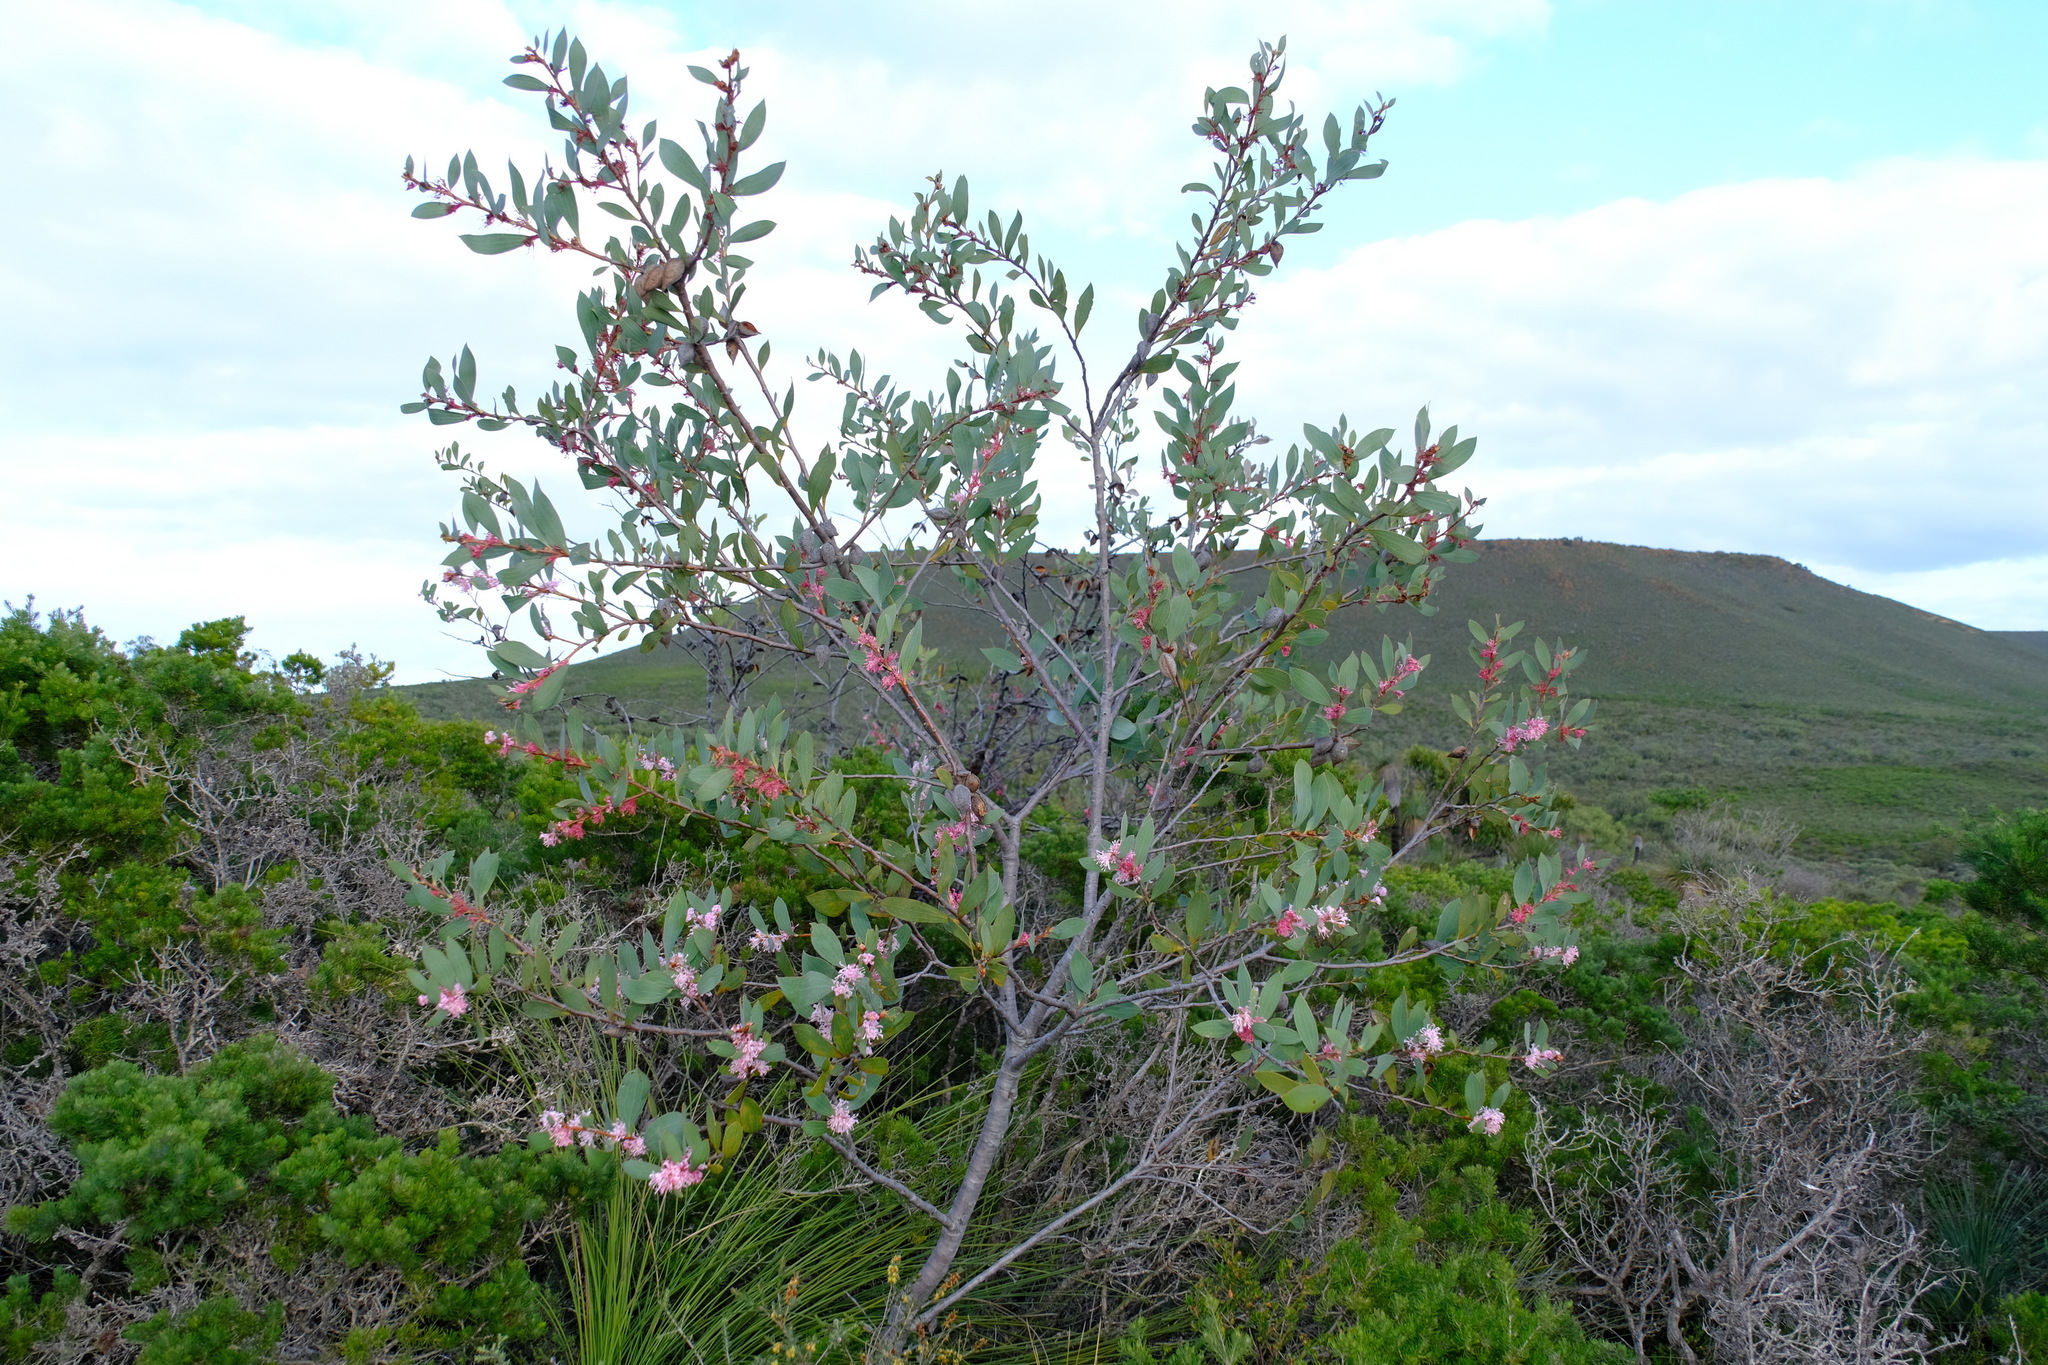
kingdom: Plantae
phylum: Tracheophyta
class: Magnoliopsida
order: Proteales
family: Proteaceae
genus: Hakea
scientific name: Hakea neurophylla
